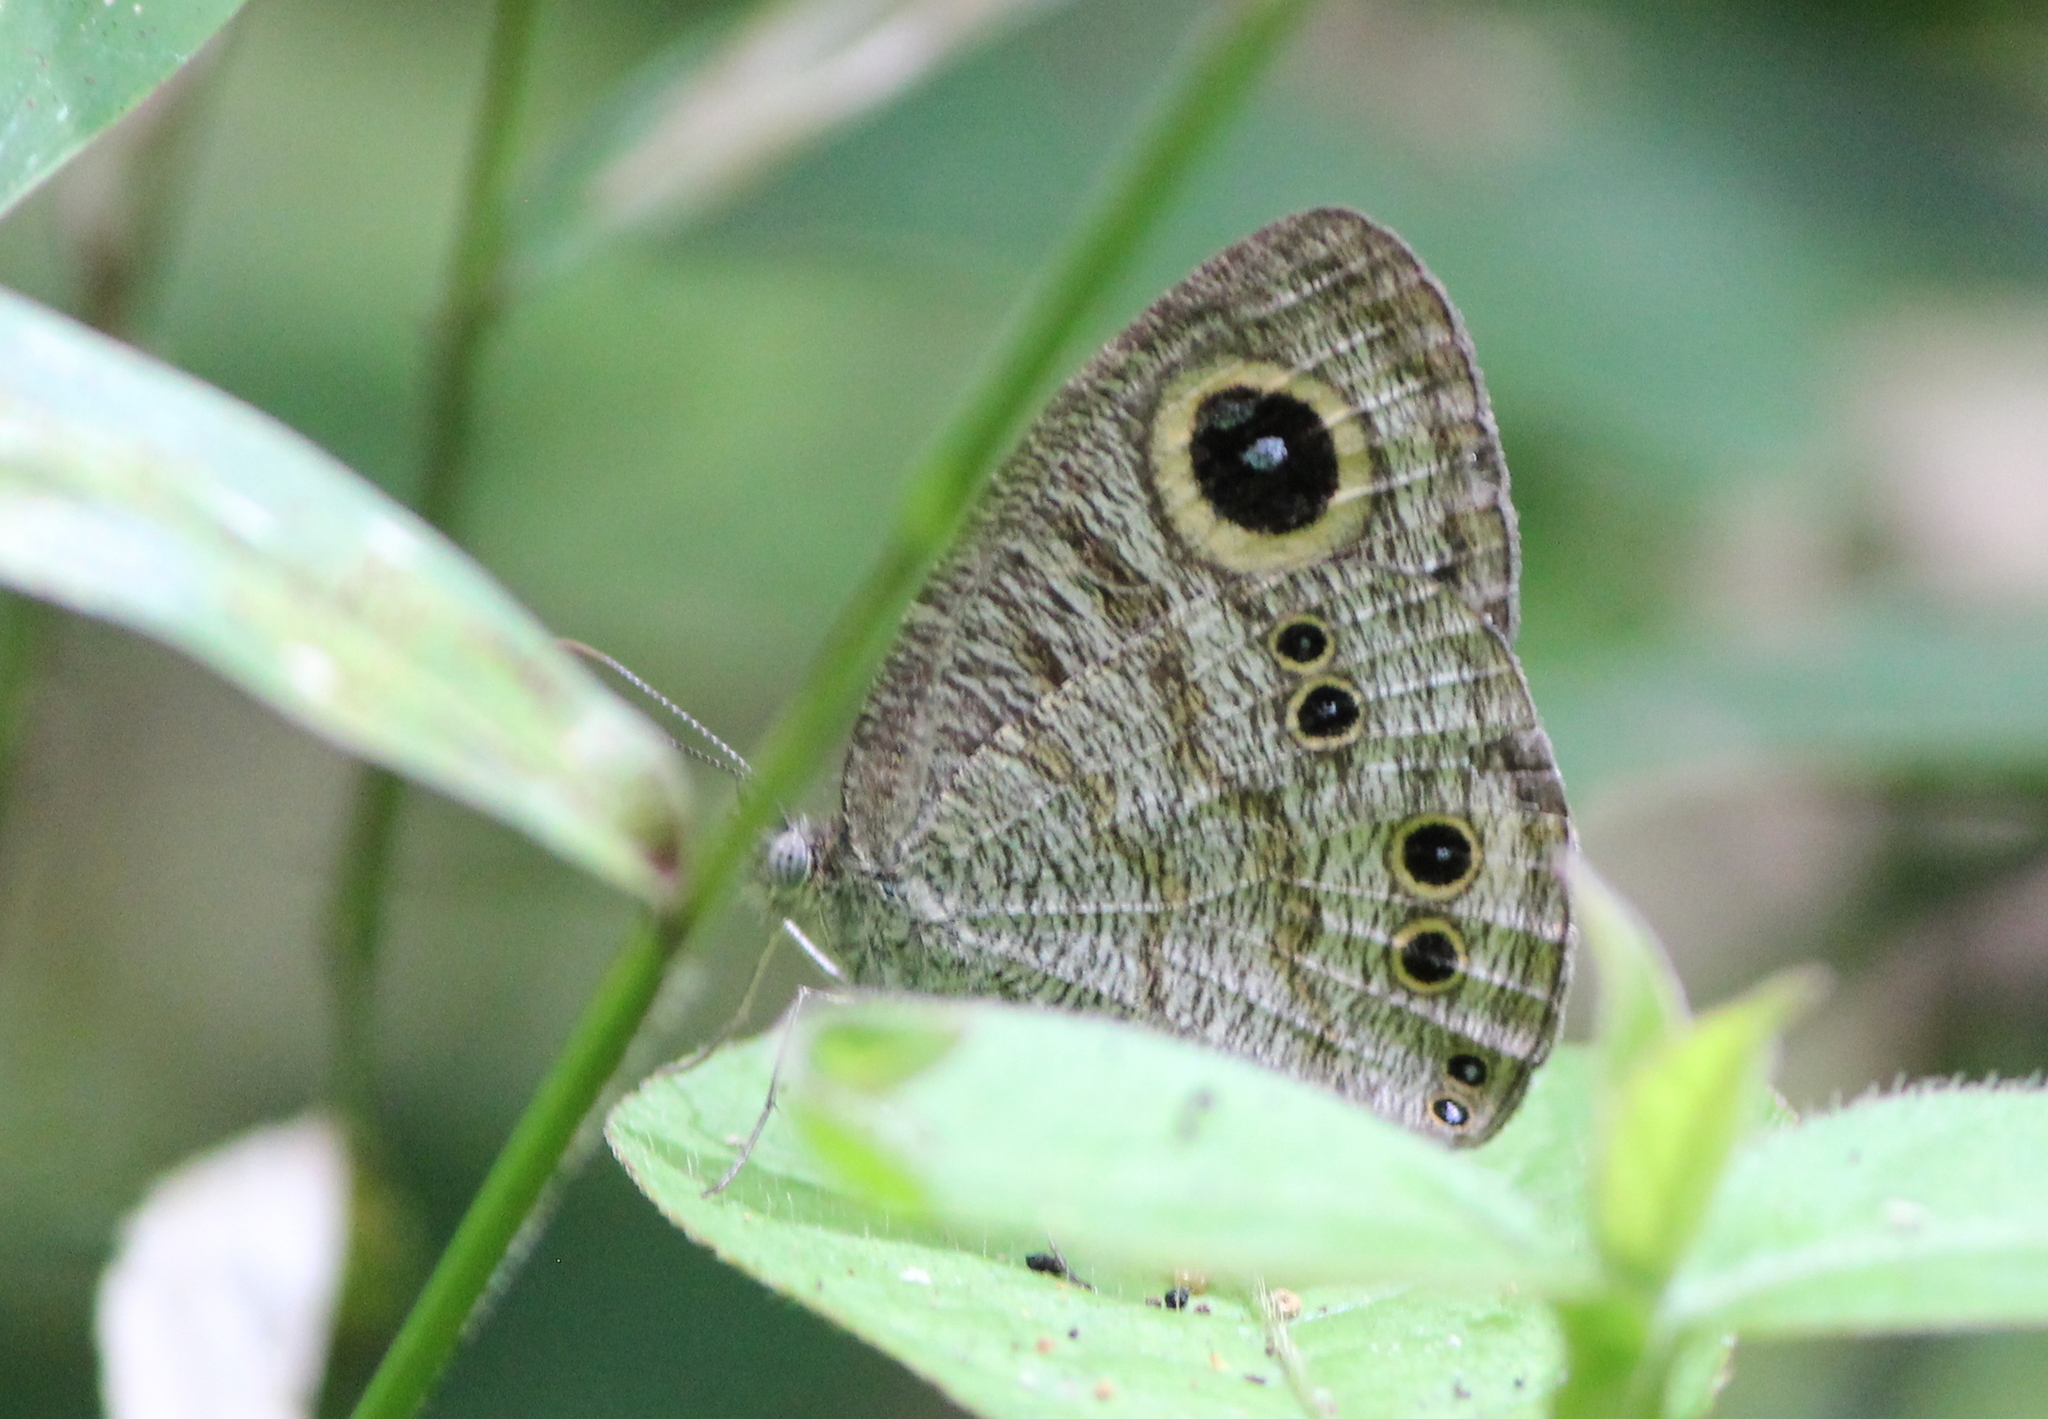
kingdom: Animalia
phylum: Arthropoda
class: Insecta
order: Lepidoptera
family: Nymphalidae
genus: Ypthima
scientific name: Ypthima baldus
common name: Common five-ring
